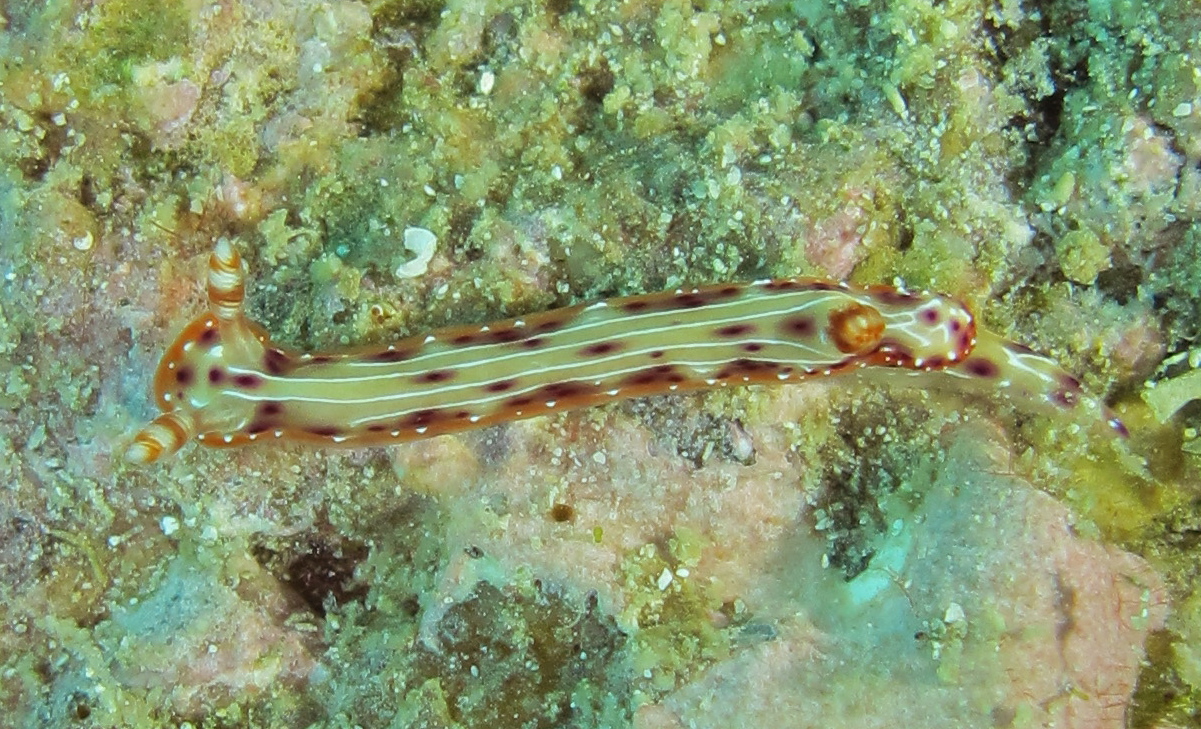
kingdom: Animalia
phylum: Mollusca
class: Gastropoda
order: Nudibranchia
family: Chromodorididae
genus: Hypselodoris
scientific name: Hypselodoris maculosa
